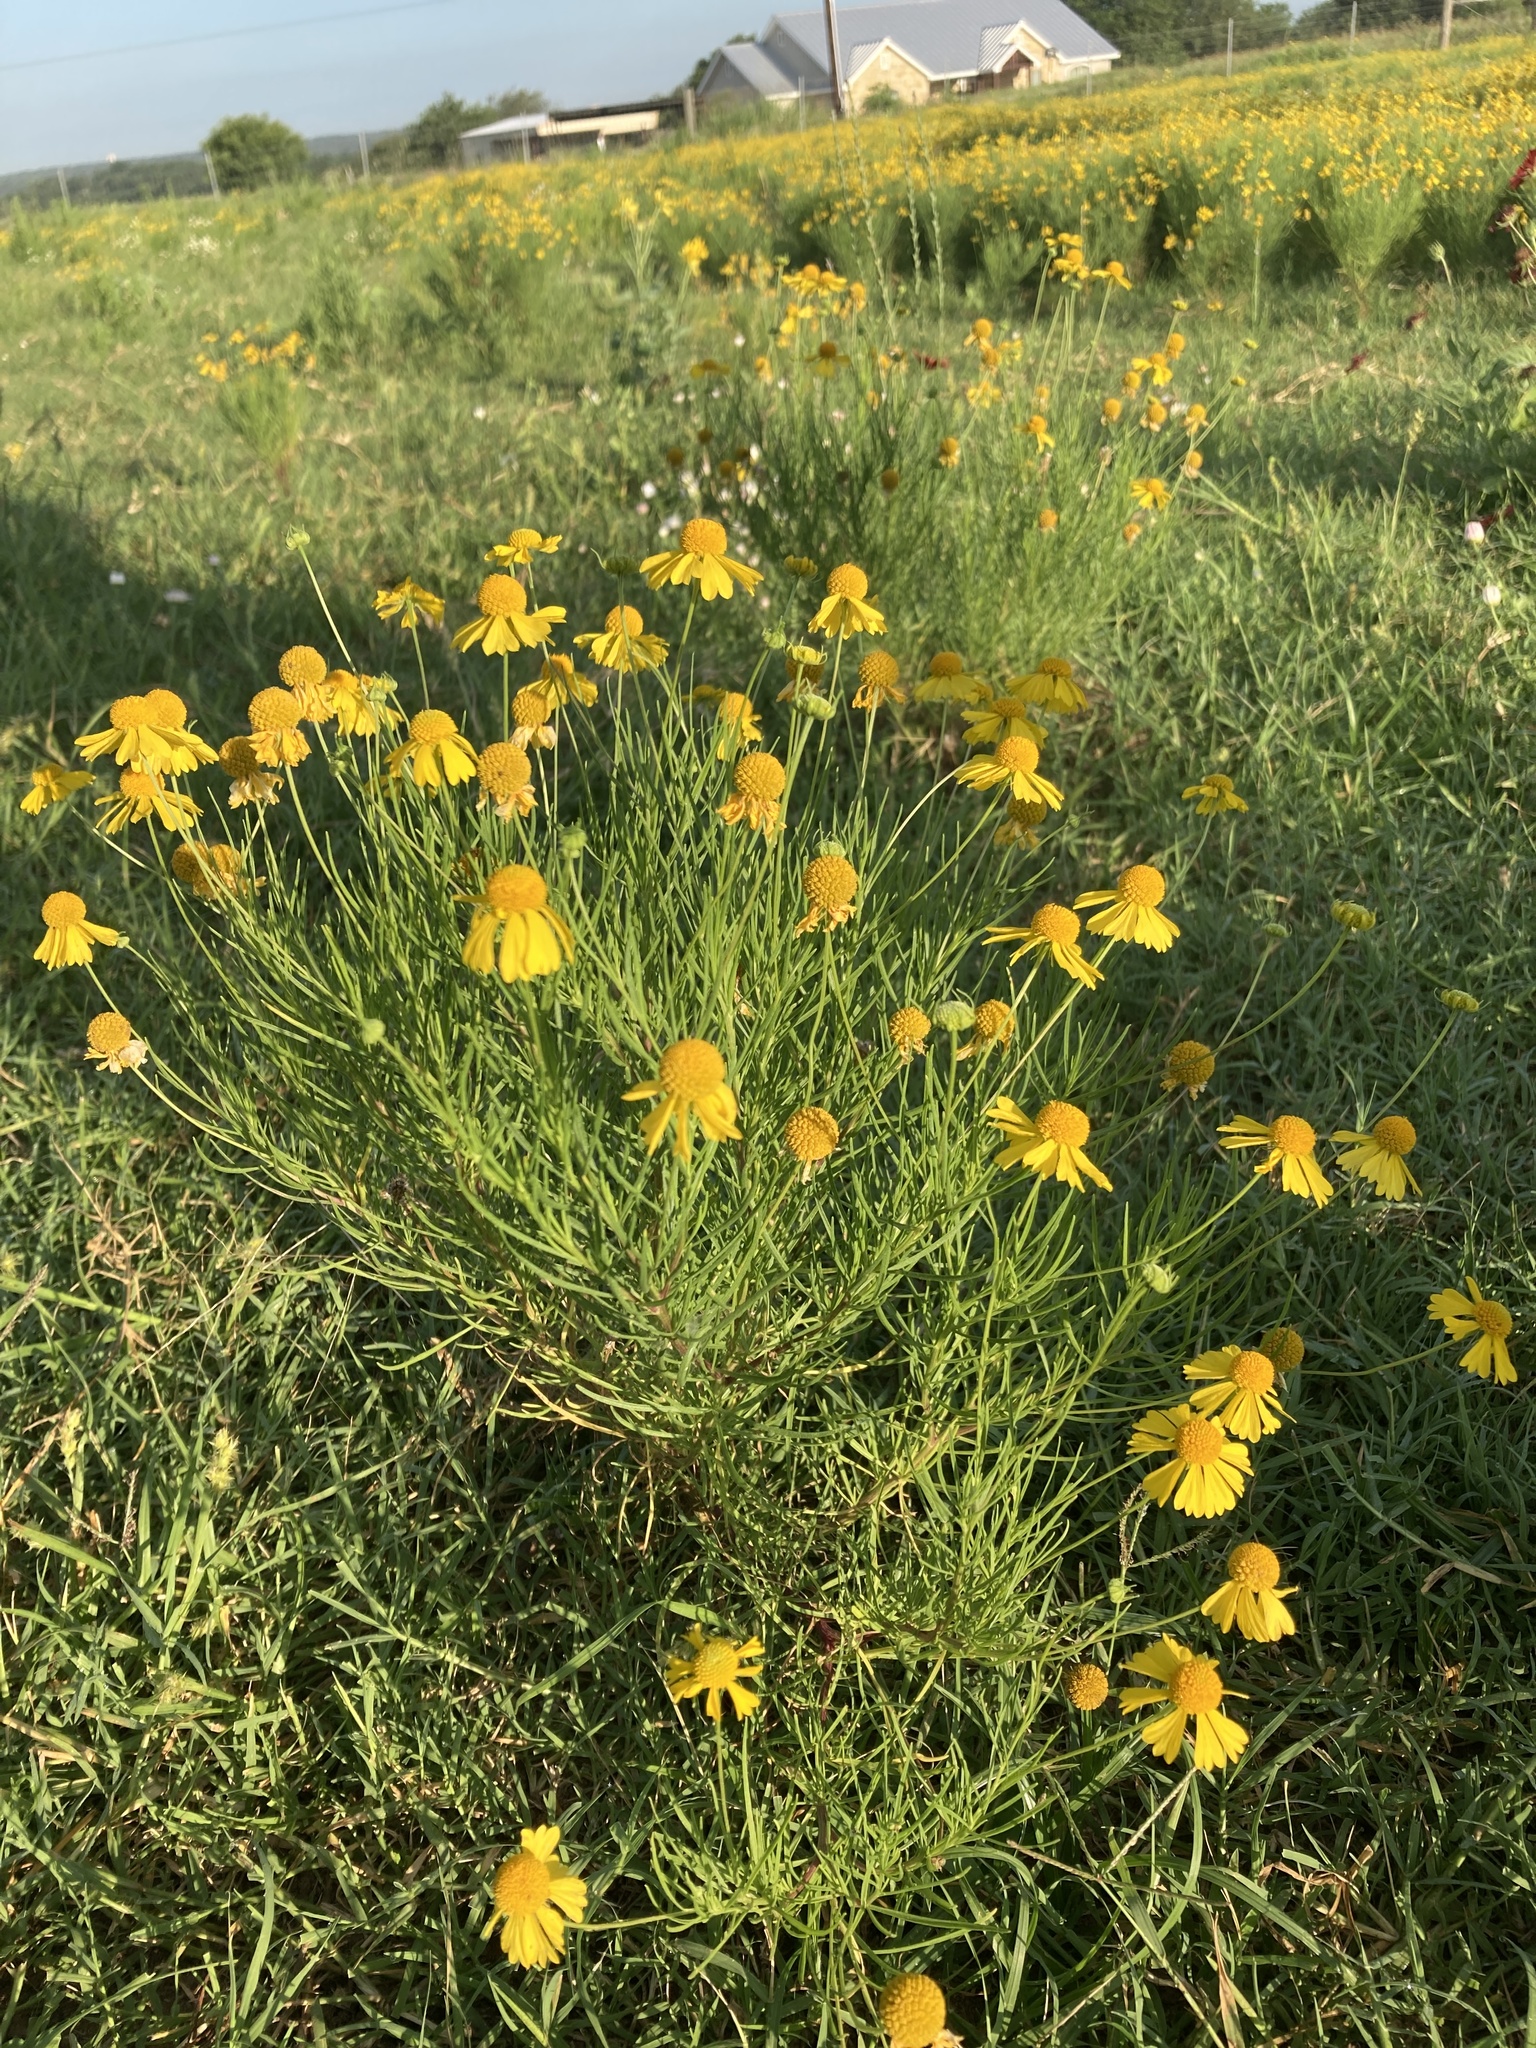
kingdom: Plantae
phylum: Tracheophyta
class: Magnoliopsida
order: Asterales
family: Asteraceae
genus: Helenium
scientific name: Helenium amarum
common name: Bitter sneezeweed
